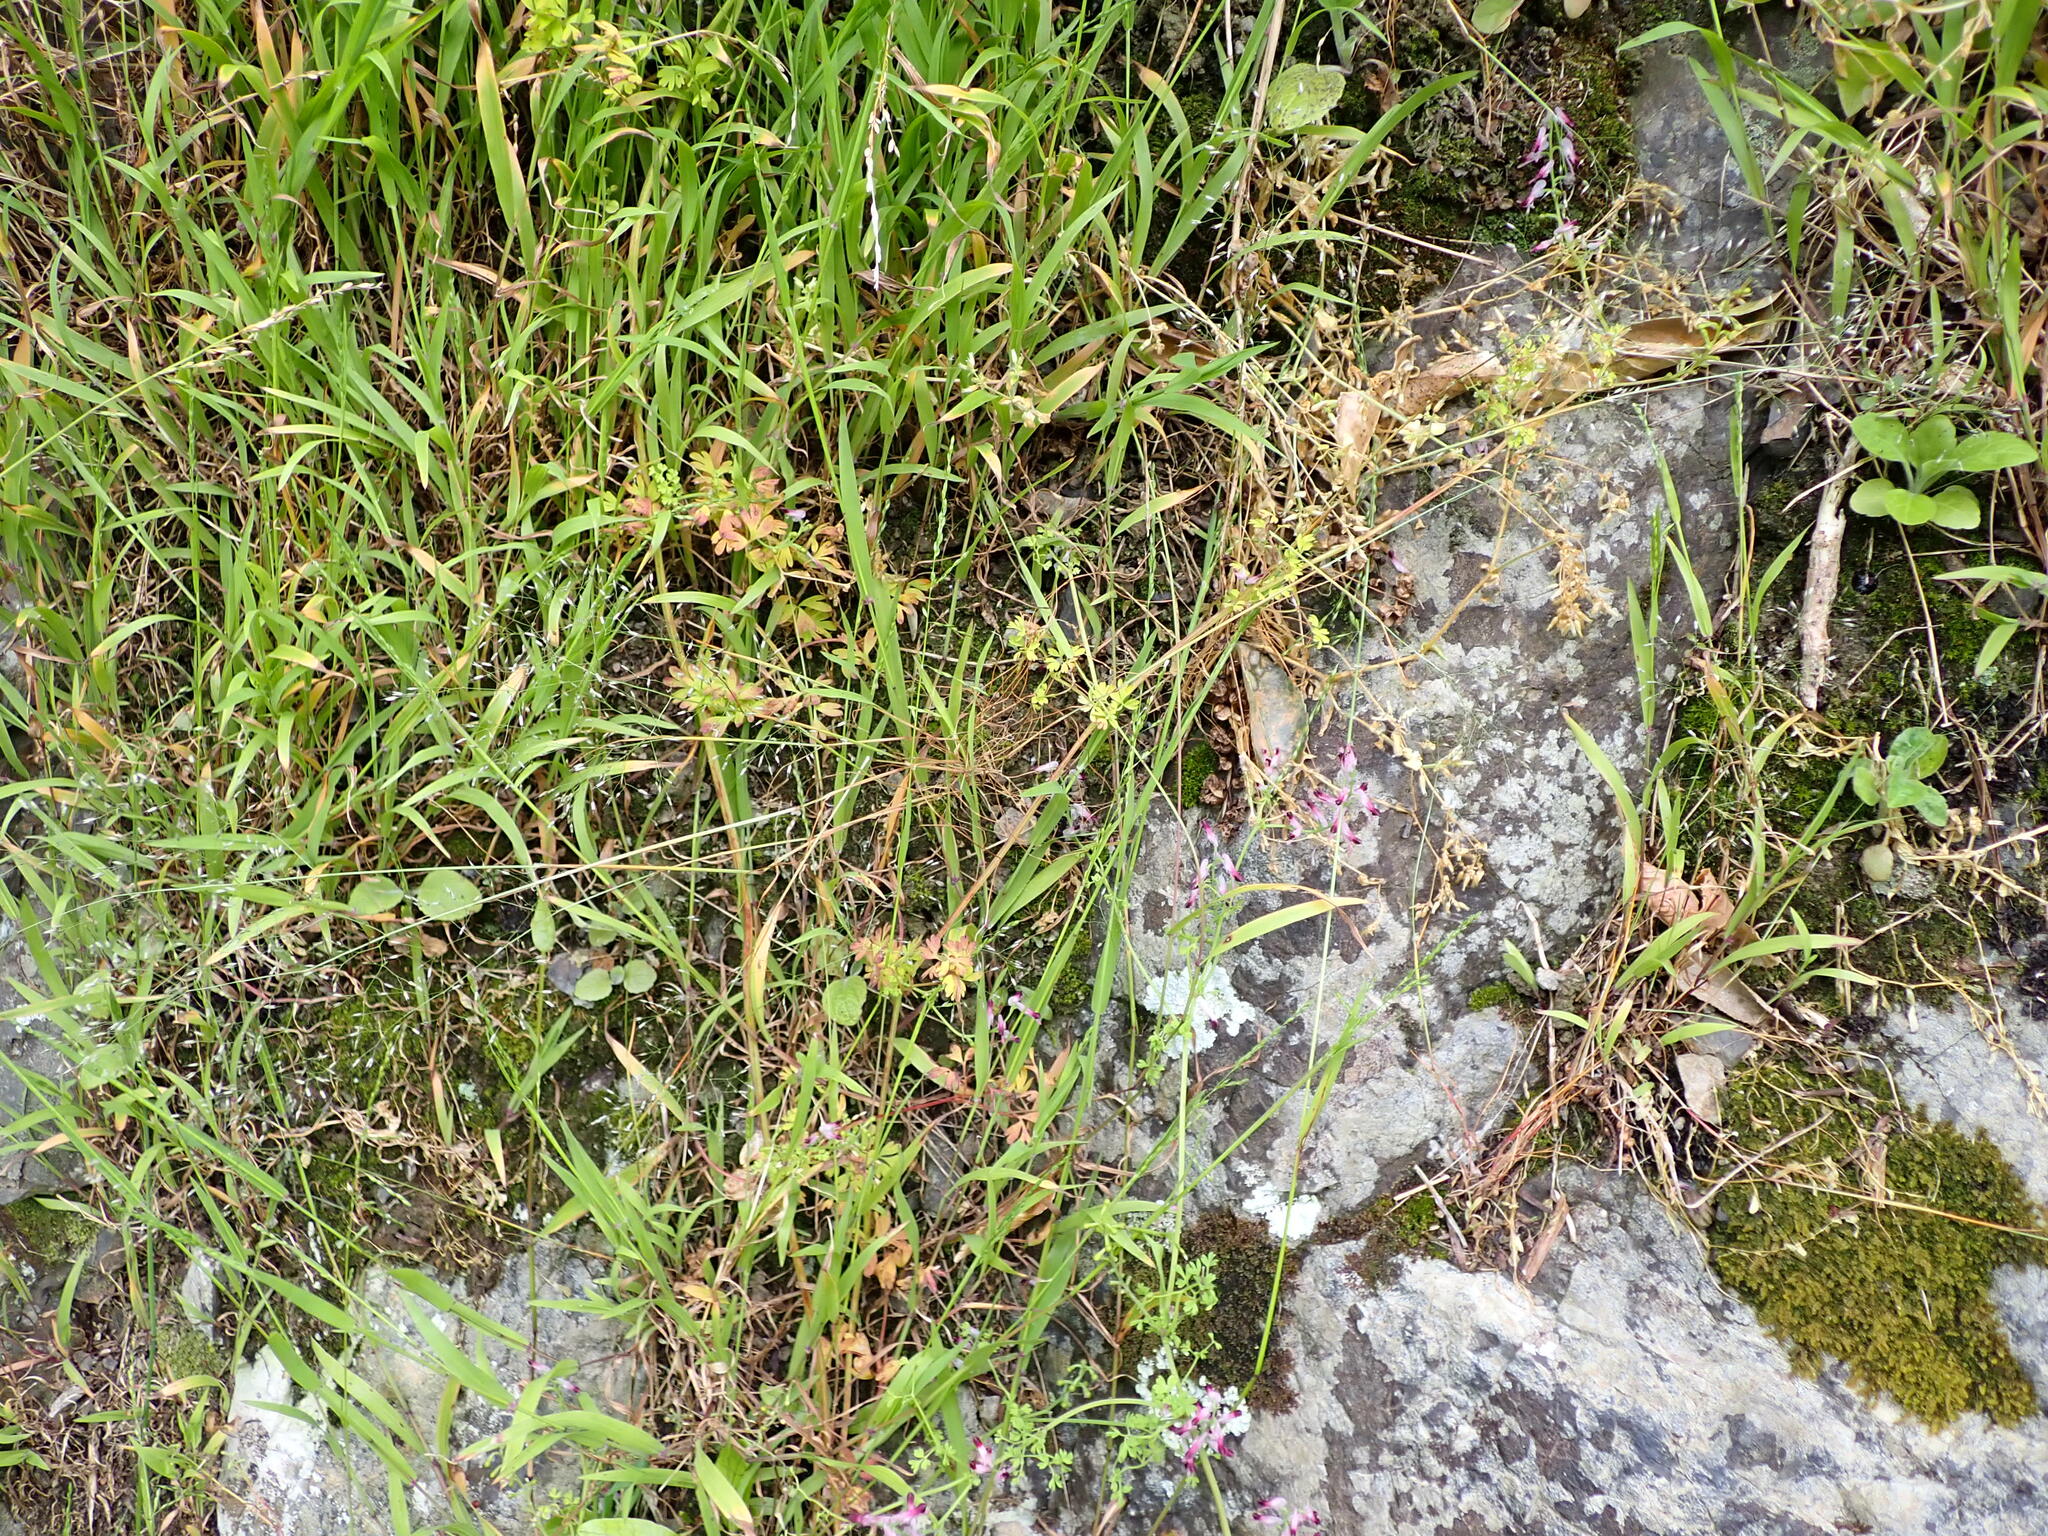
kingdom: Plantae
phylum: Tracheophyta
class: Liliopsida
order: Poales
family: Poaceae
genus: Aira
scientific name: Aira caryophyllea
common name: Silver hairgrass
